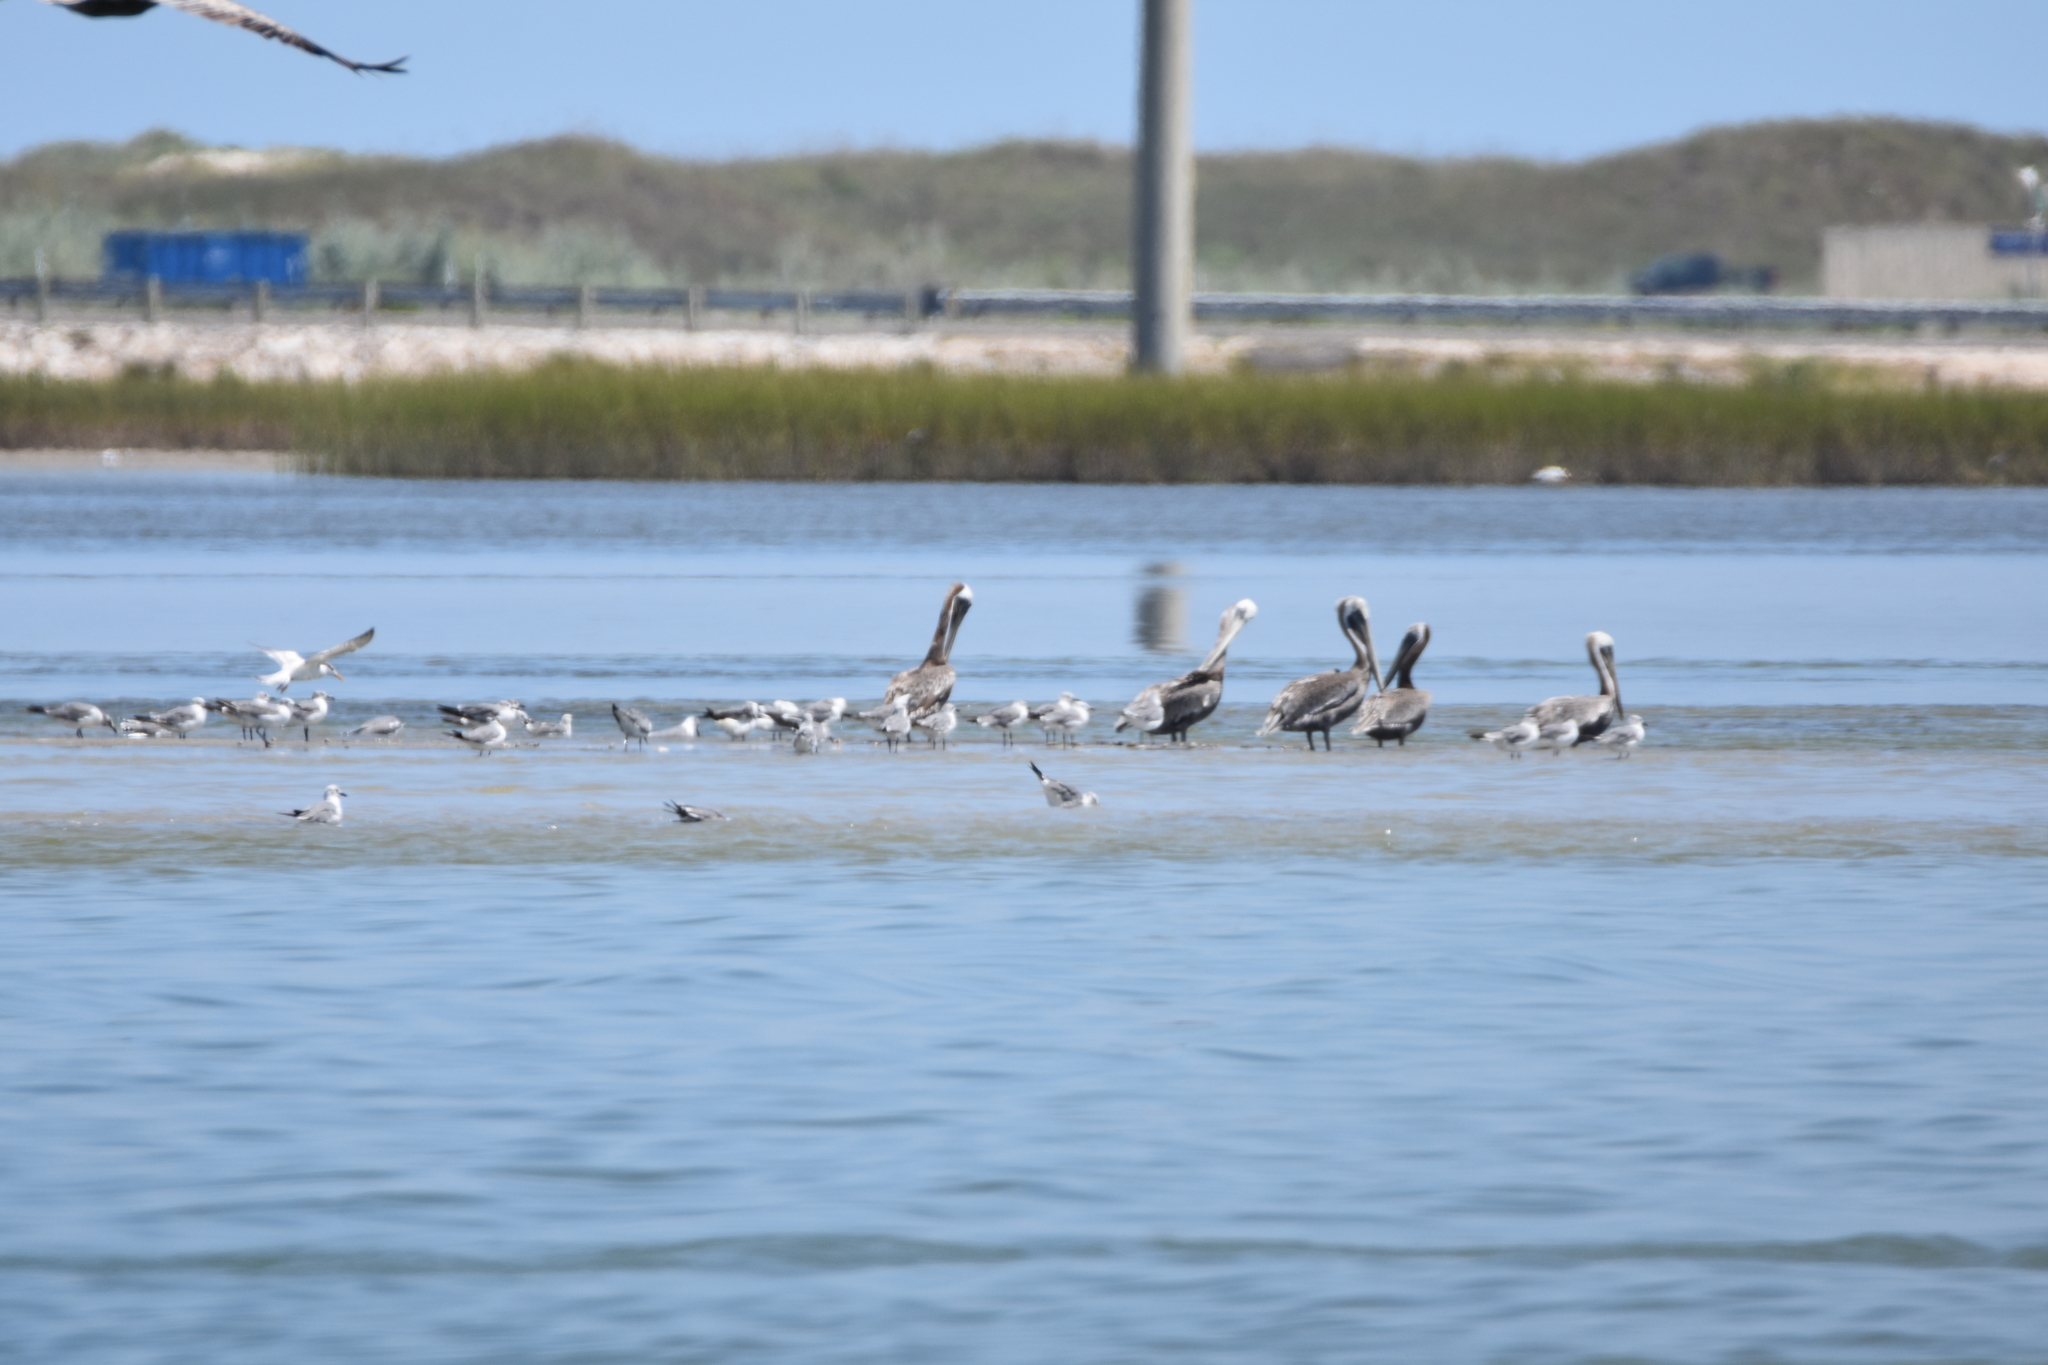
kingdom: Animalia
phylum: Chordata
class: Aves
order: Charadriiformes
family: Laridae
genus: Thalasseus
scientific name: Thalasseus maximus
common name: Royal tern
